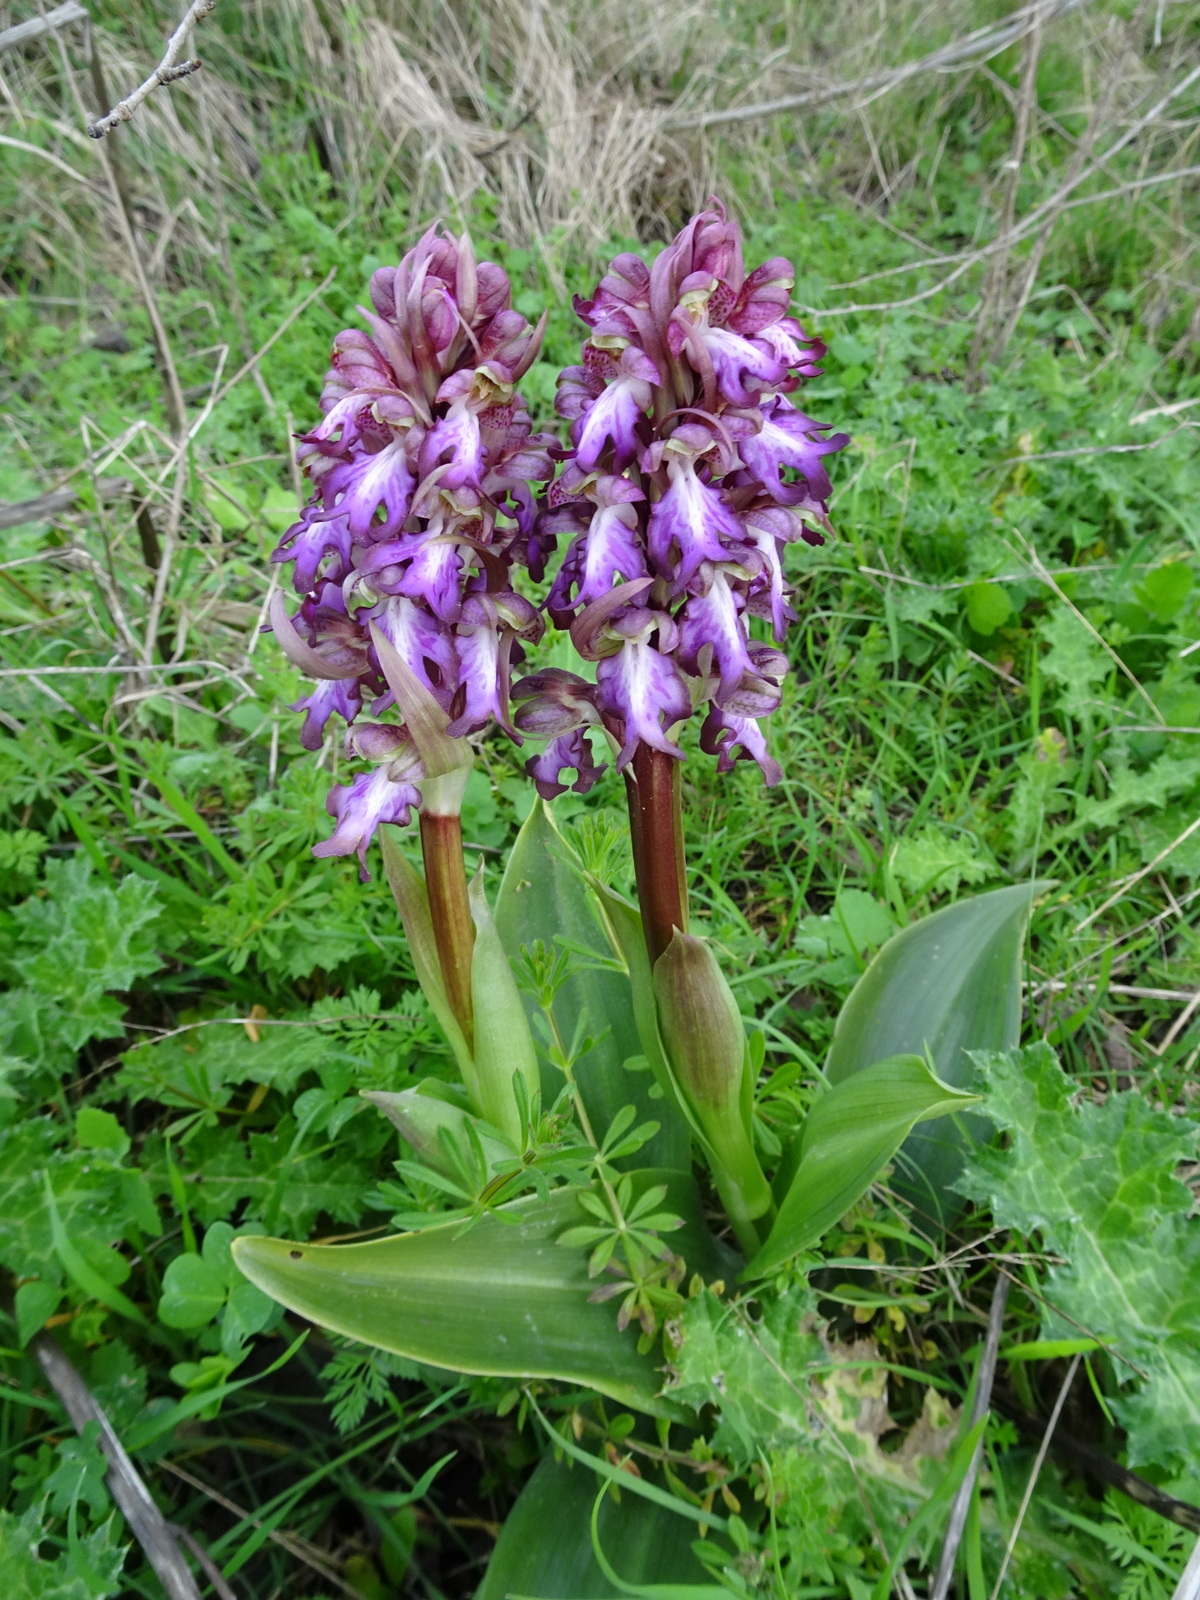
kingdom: Plantae
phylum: Tracheophyta
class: Liliopsida
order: Asparagales
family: Orchidaceae
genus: Himantoglossum
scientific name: Himantoglossum robertianum
